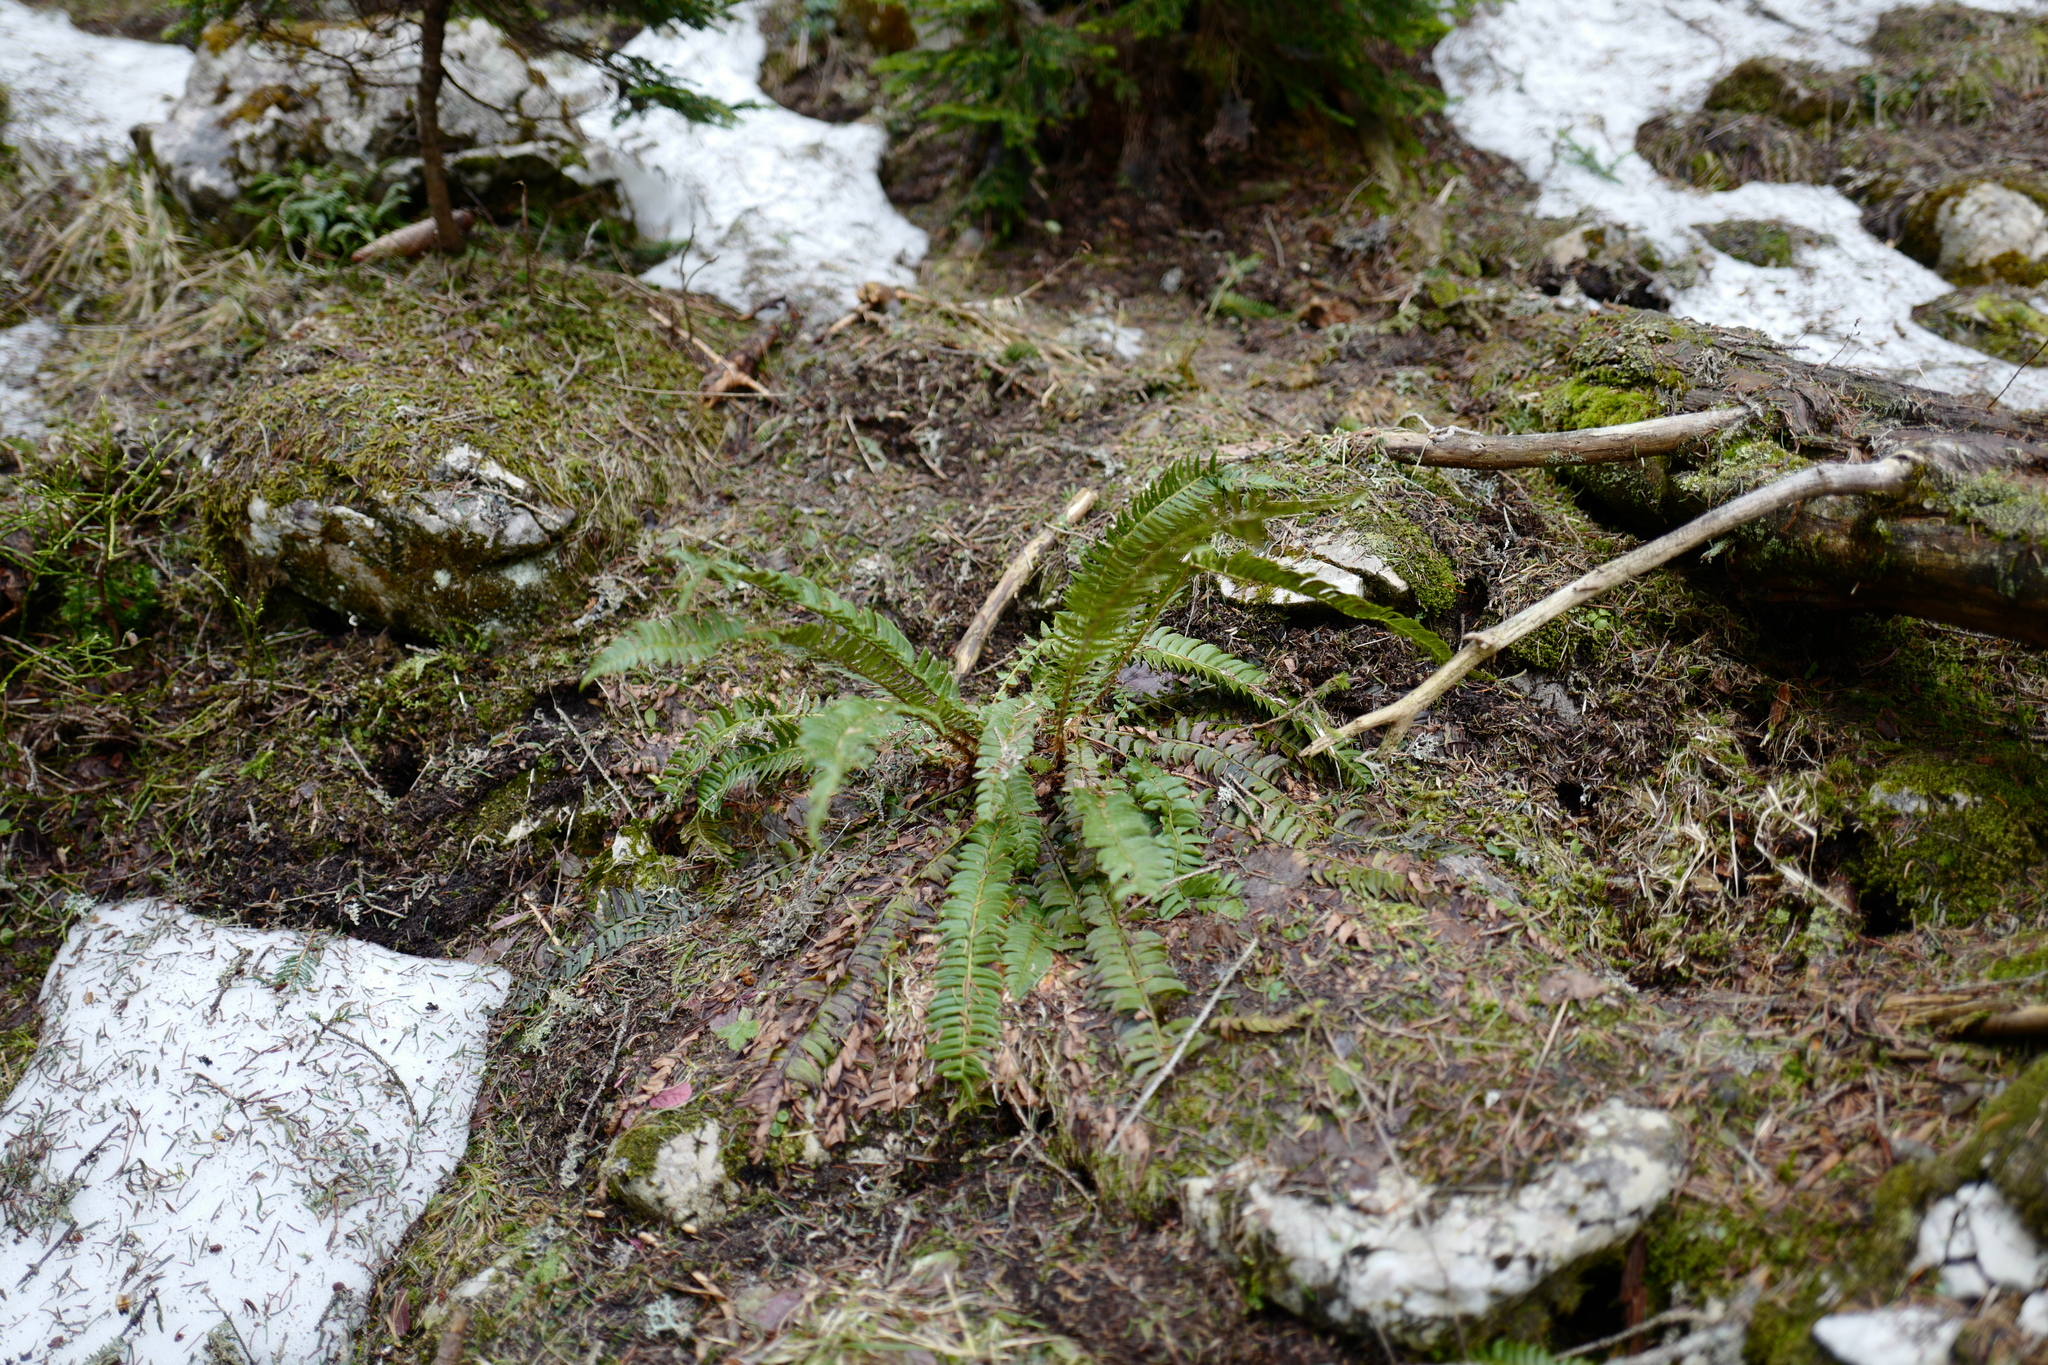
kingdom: Plantae
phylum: Tracheophyta
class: Polypodiopsida
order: Polypodiales
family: Dryopteridaceae
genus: Polystichum
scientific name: Polystichum lonchitis
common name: Holly fern
